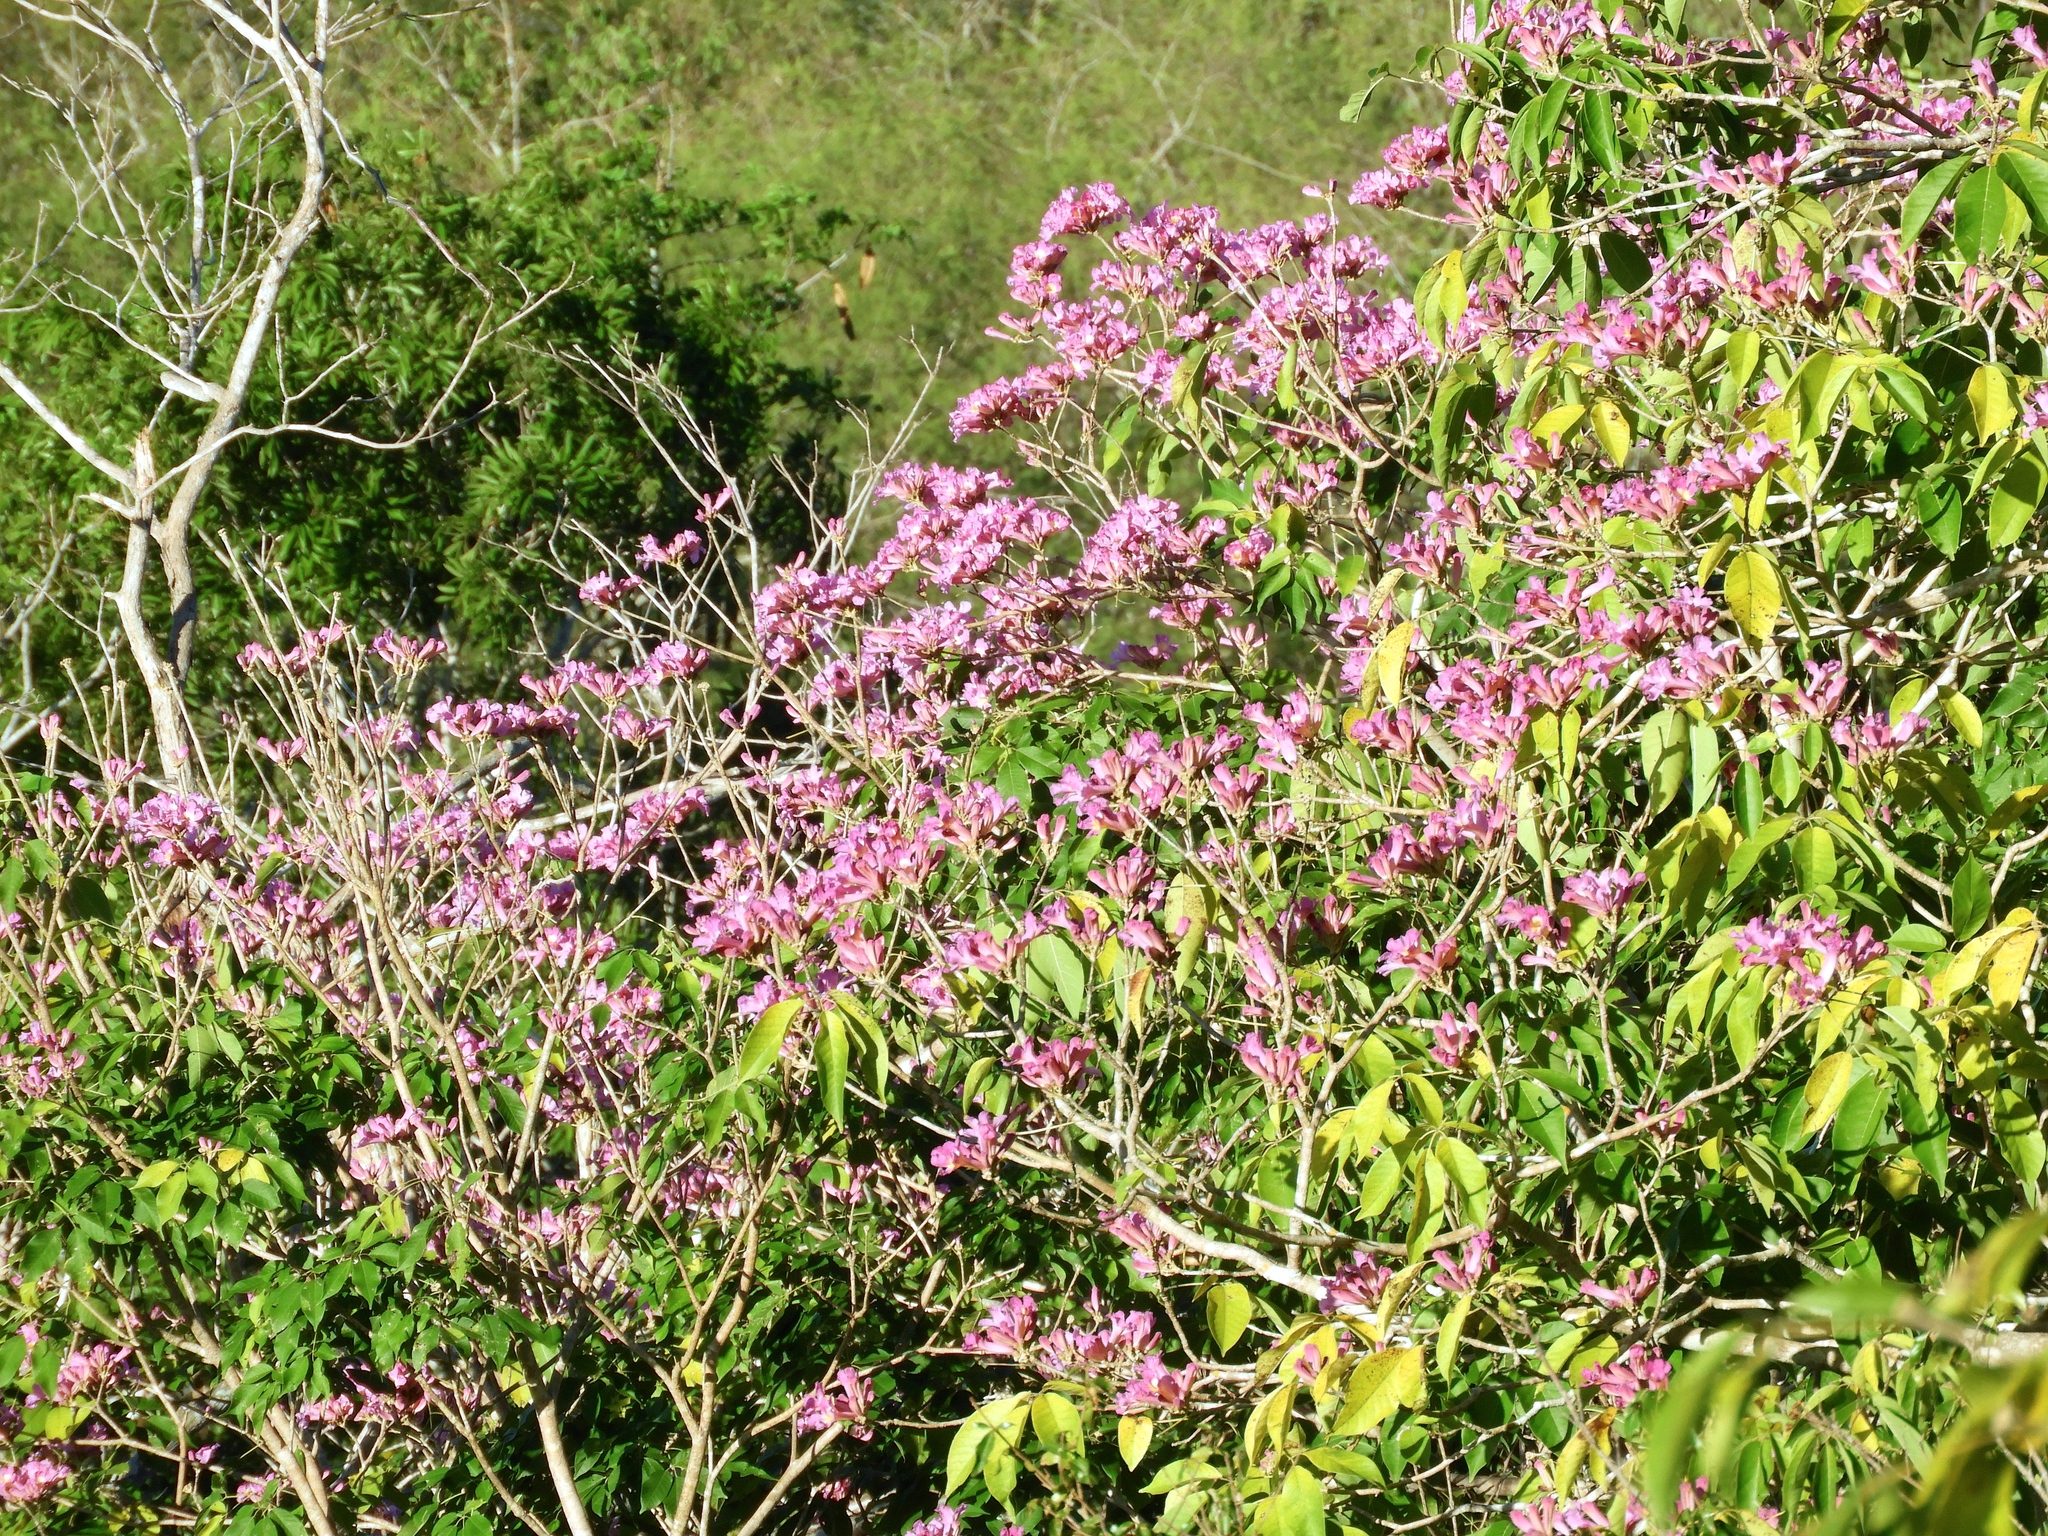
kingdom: Plantae
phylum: Tracheophyta
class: Magnoliopsida
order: Lamiales
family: Bignoniaceae
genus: Handroanthus
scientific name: Handroanthus
